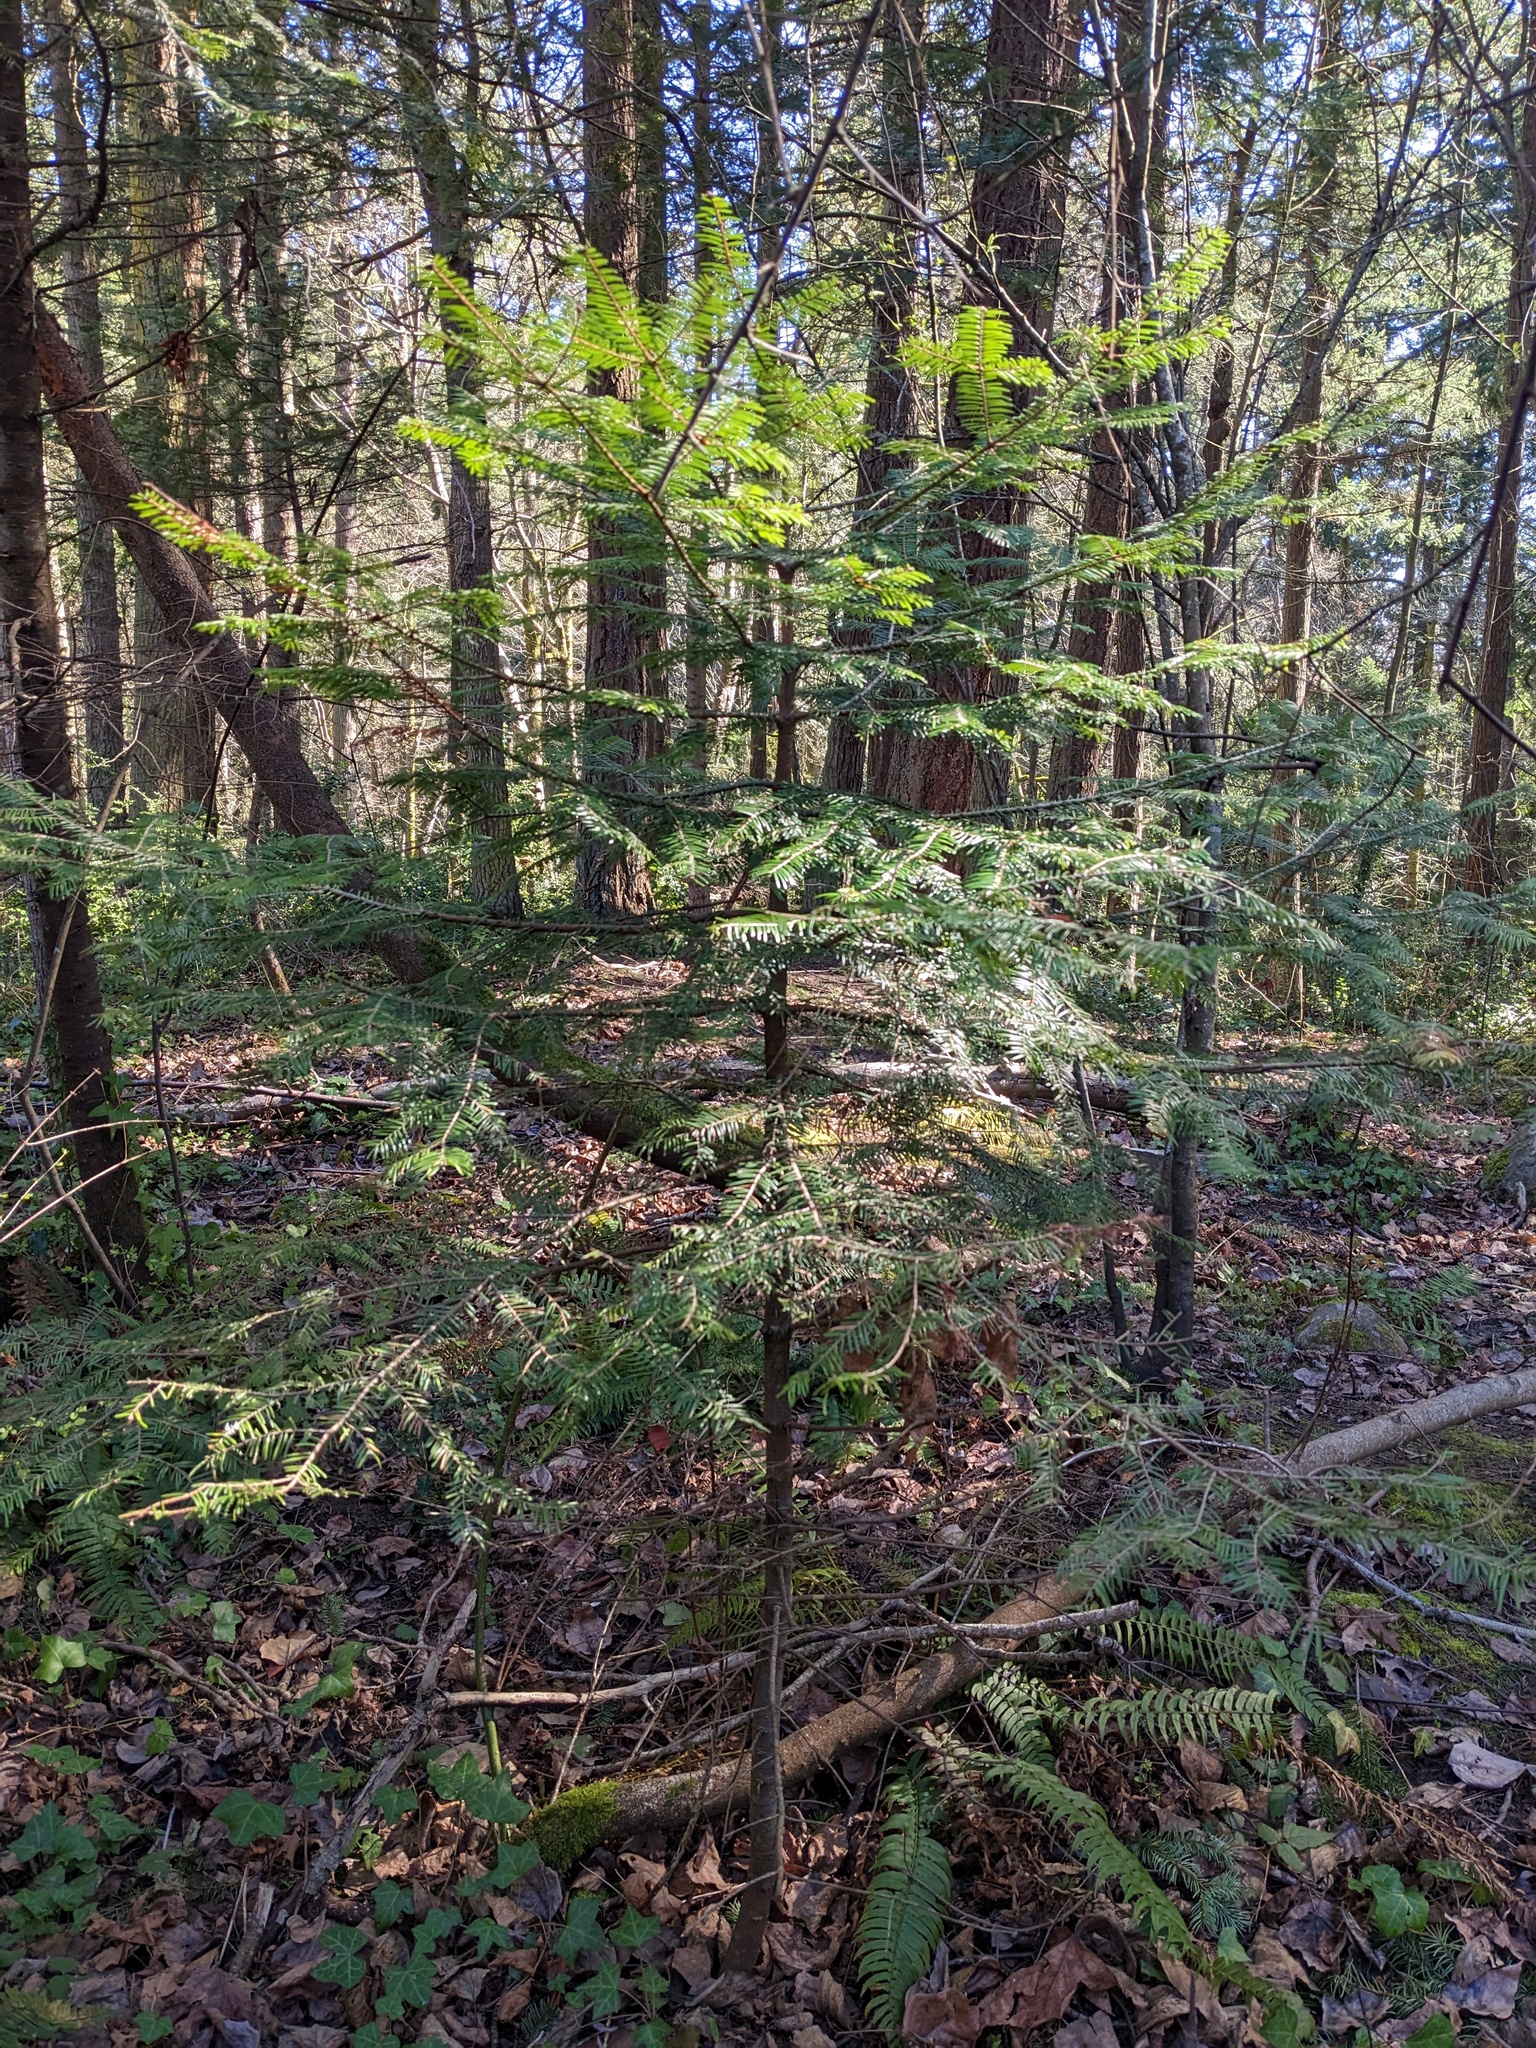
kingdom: Plantae
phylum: Tracheophyta
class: Pinopsida
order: Pinales
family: Pinaceae
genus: Abies
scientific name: Abies grandis
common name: Giant fir
